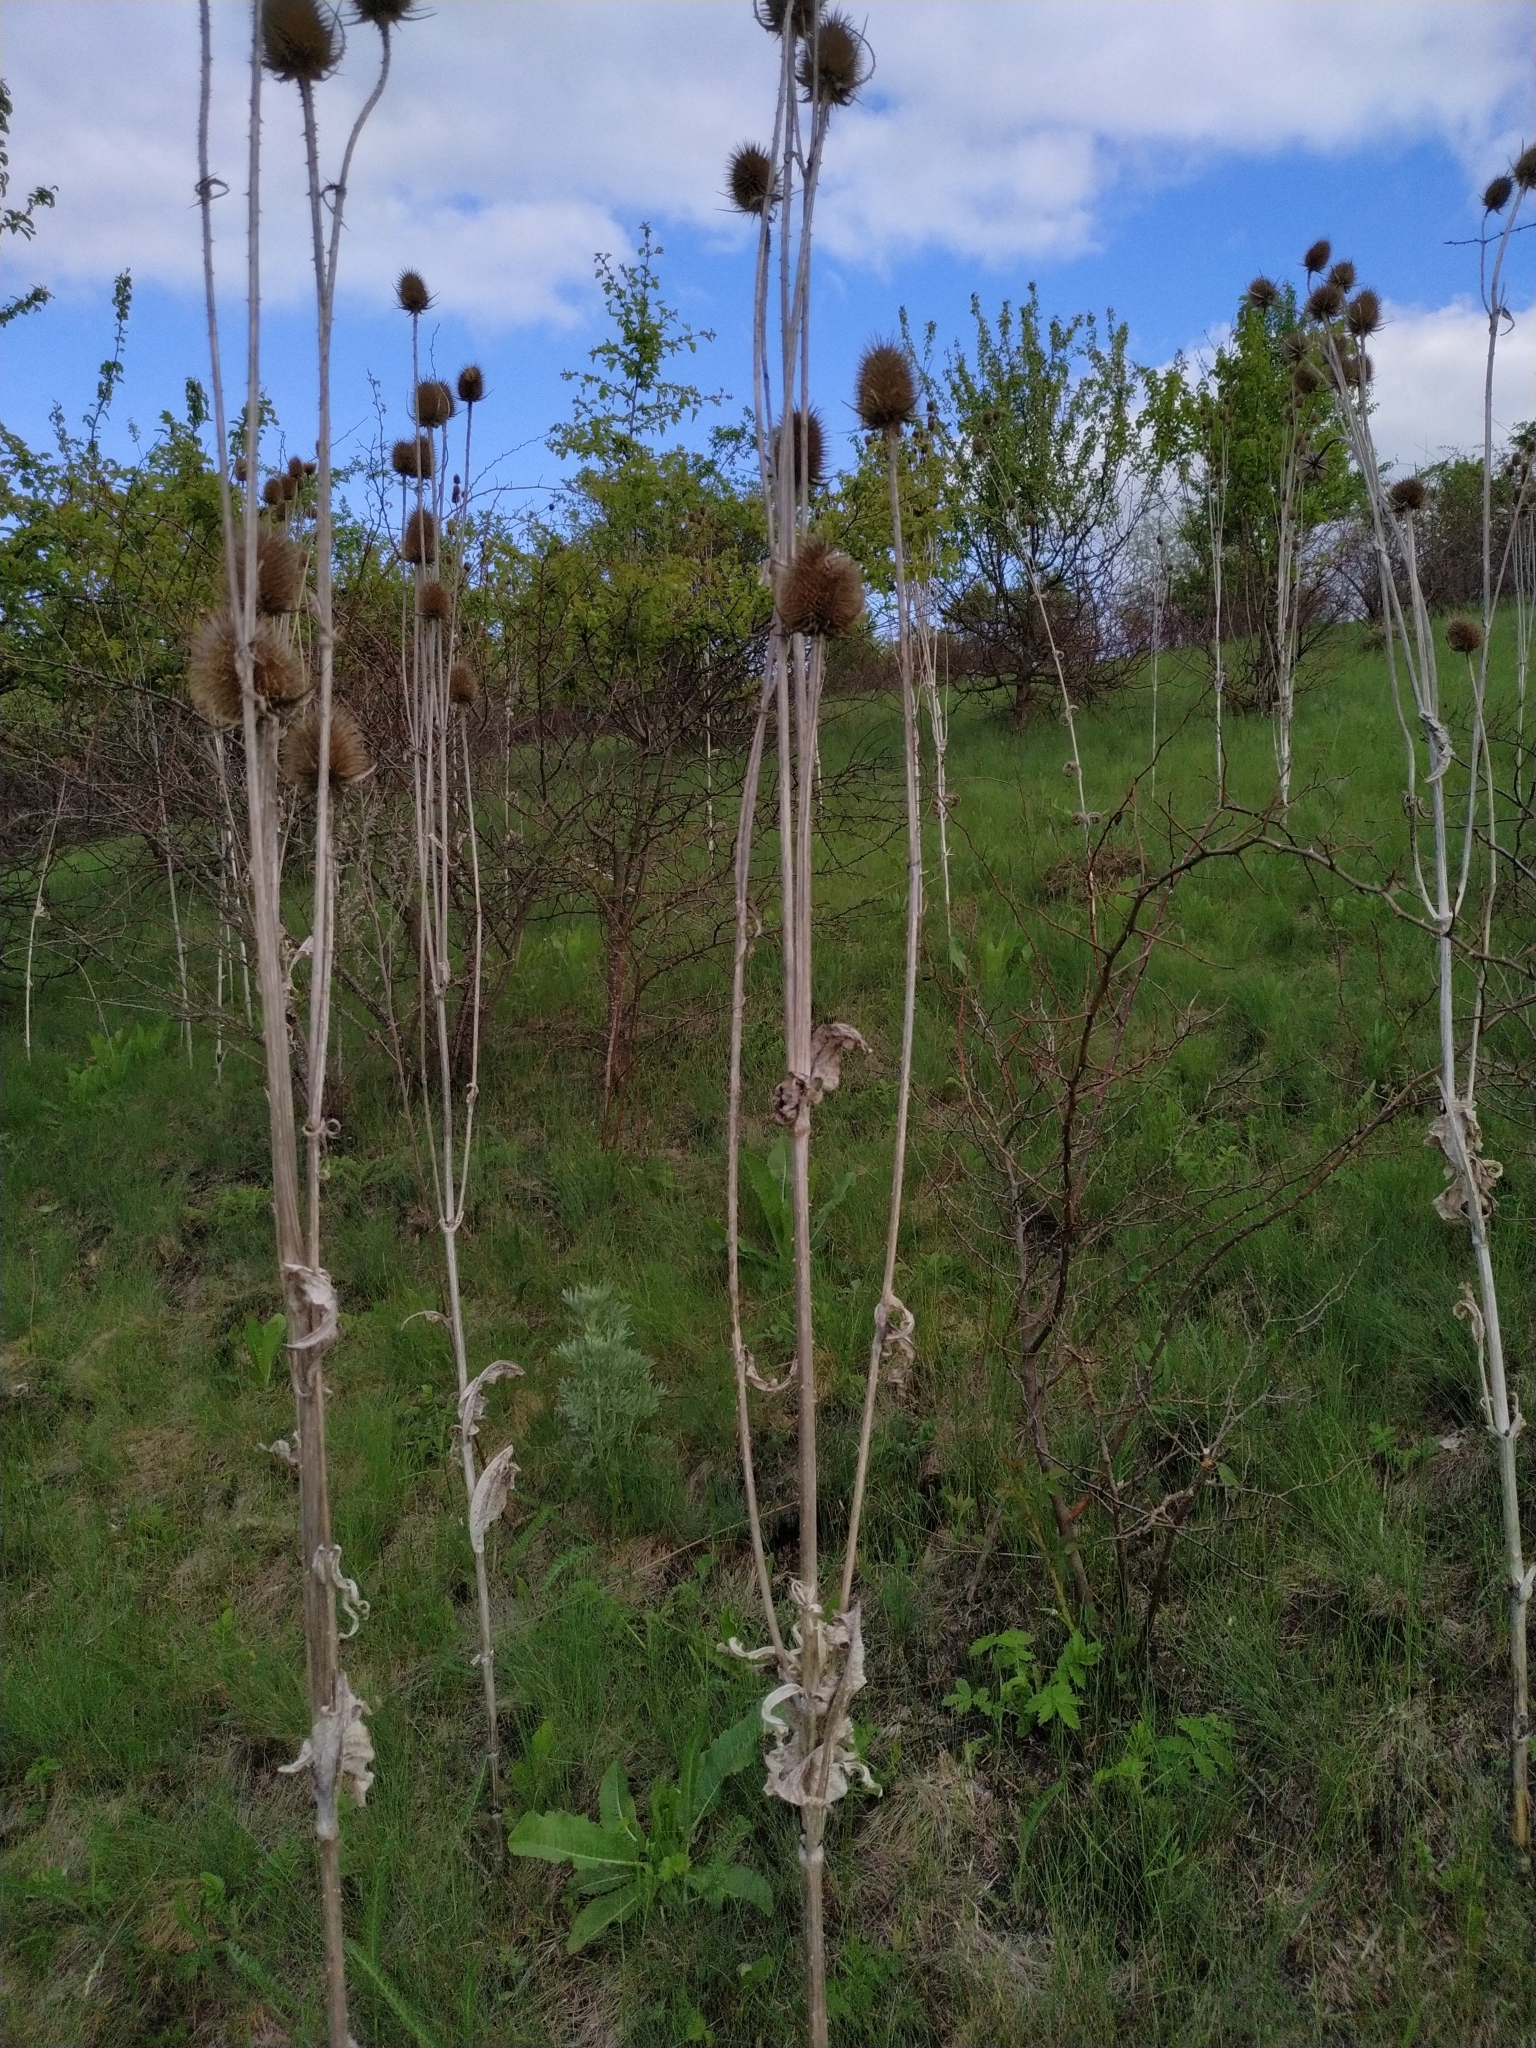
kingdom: Plantae
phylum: Tracheophyta
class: Magnoliopsida
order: Dipsacales
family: Caprifoliaceae
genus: Dipsacus
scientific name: Dipsacus laciniatus
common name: Cut-leaved teasel
